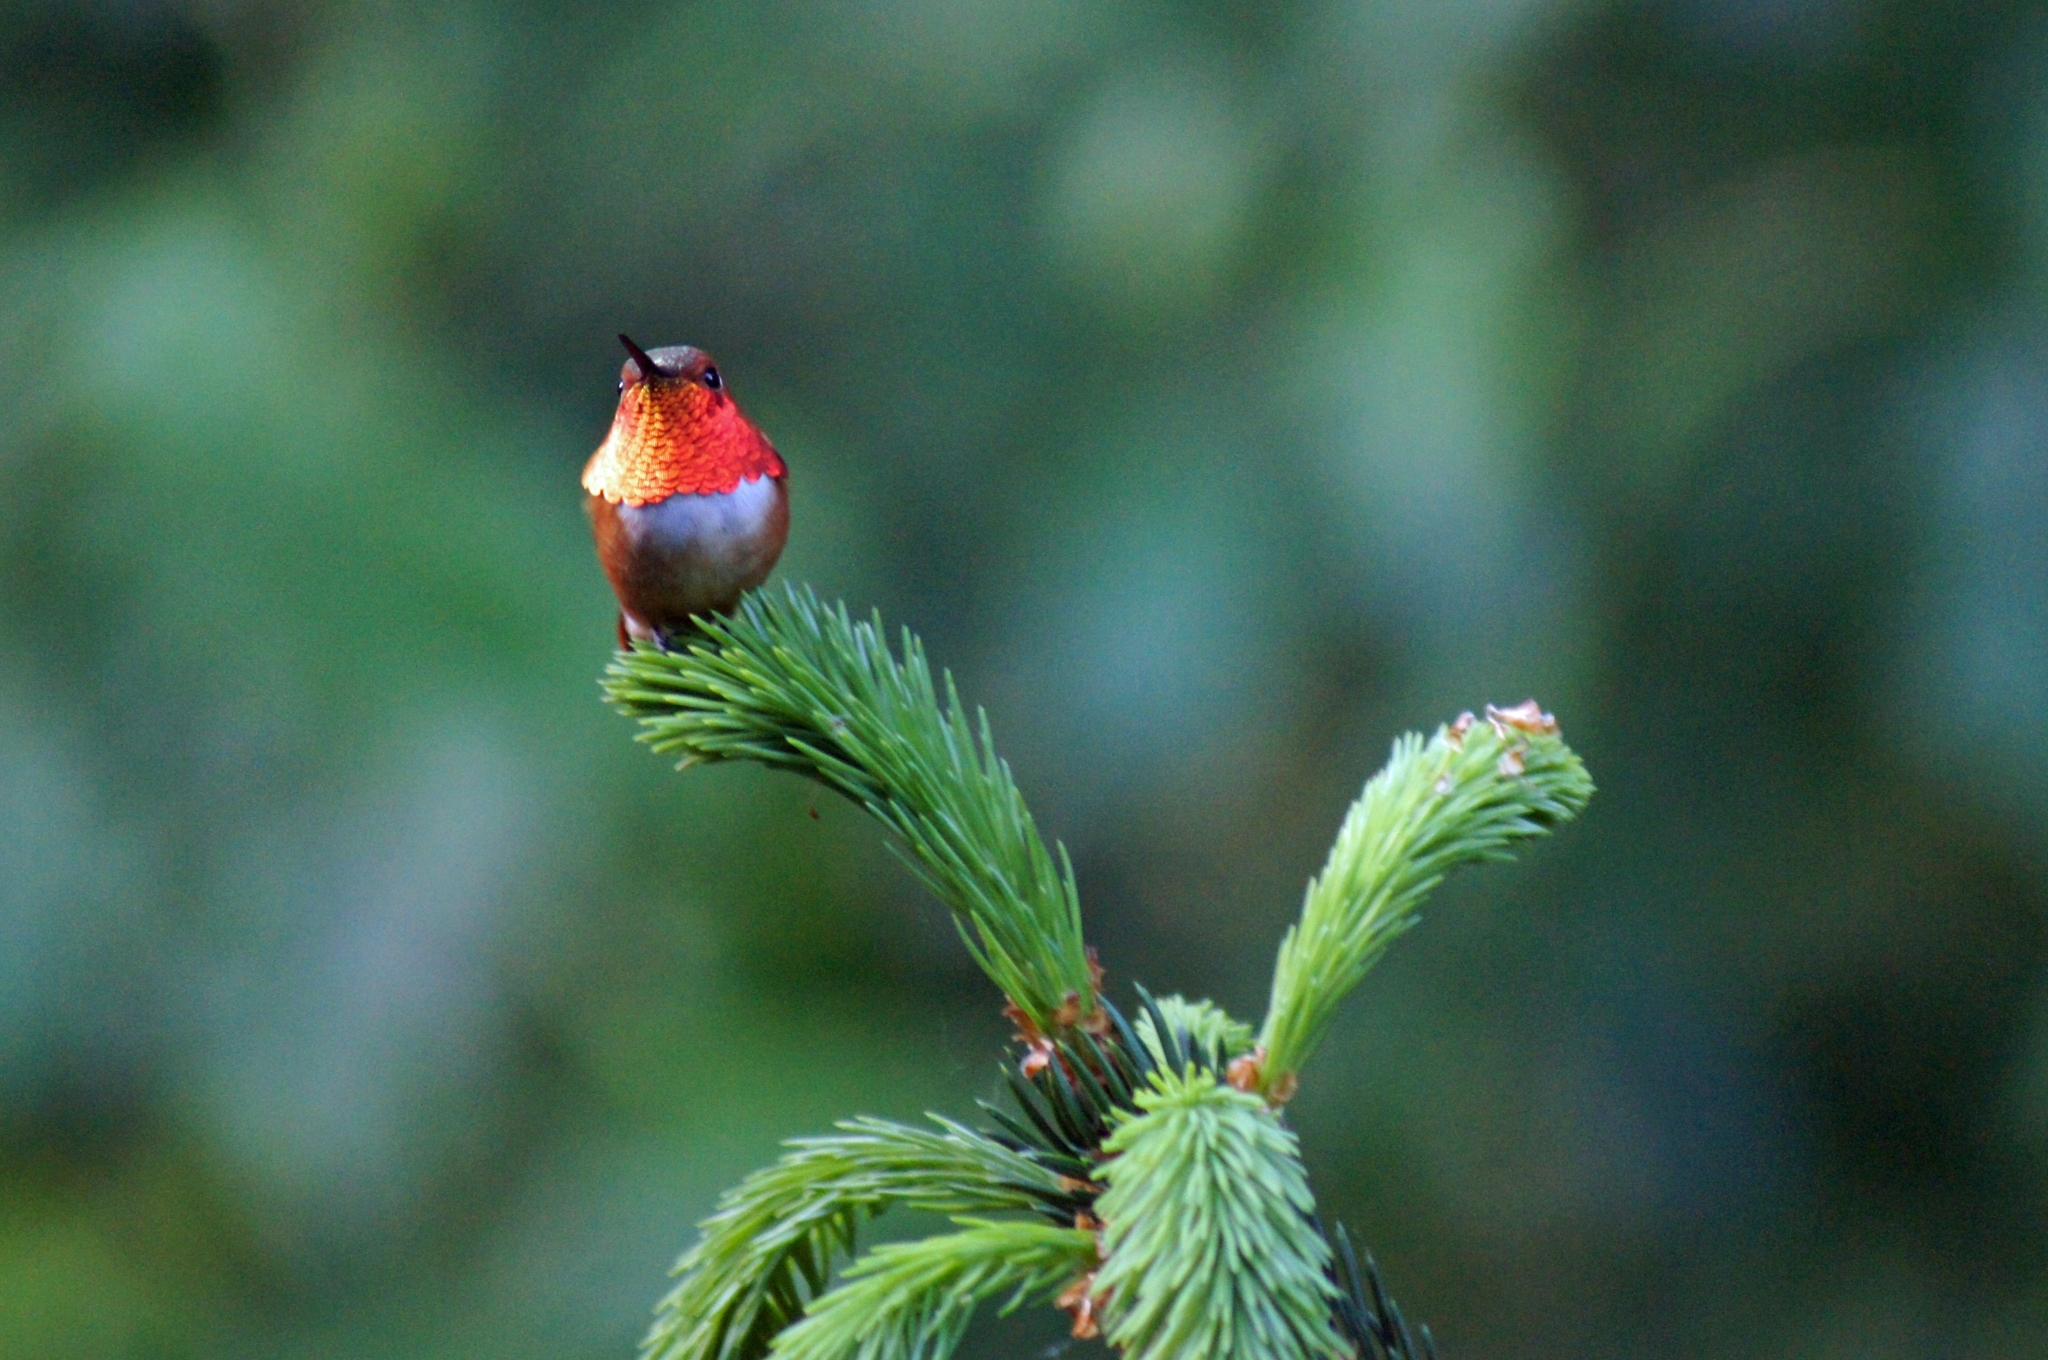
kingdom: Animalia
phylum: Chordata
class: Aves
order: Apodiformes
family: Trochilidae
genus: Selasphorus
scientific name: Selasphorus rufus
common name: Rufous hummingbird
